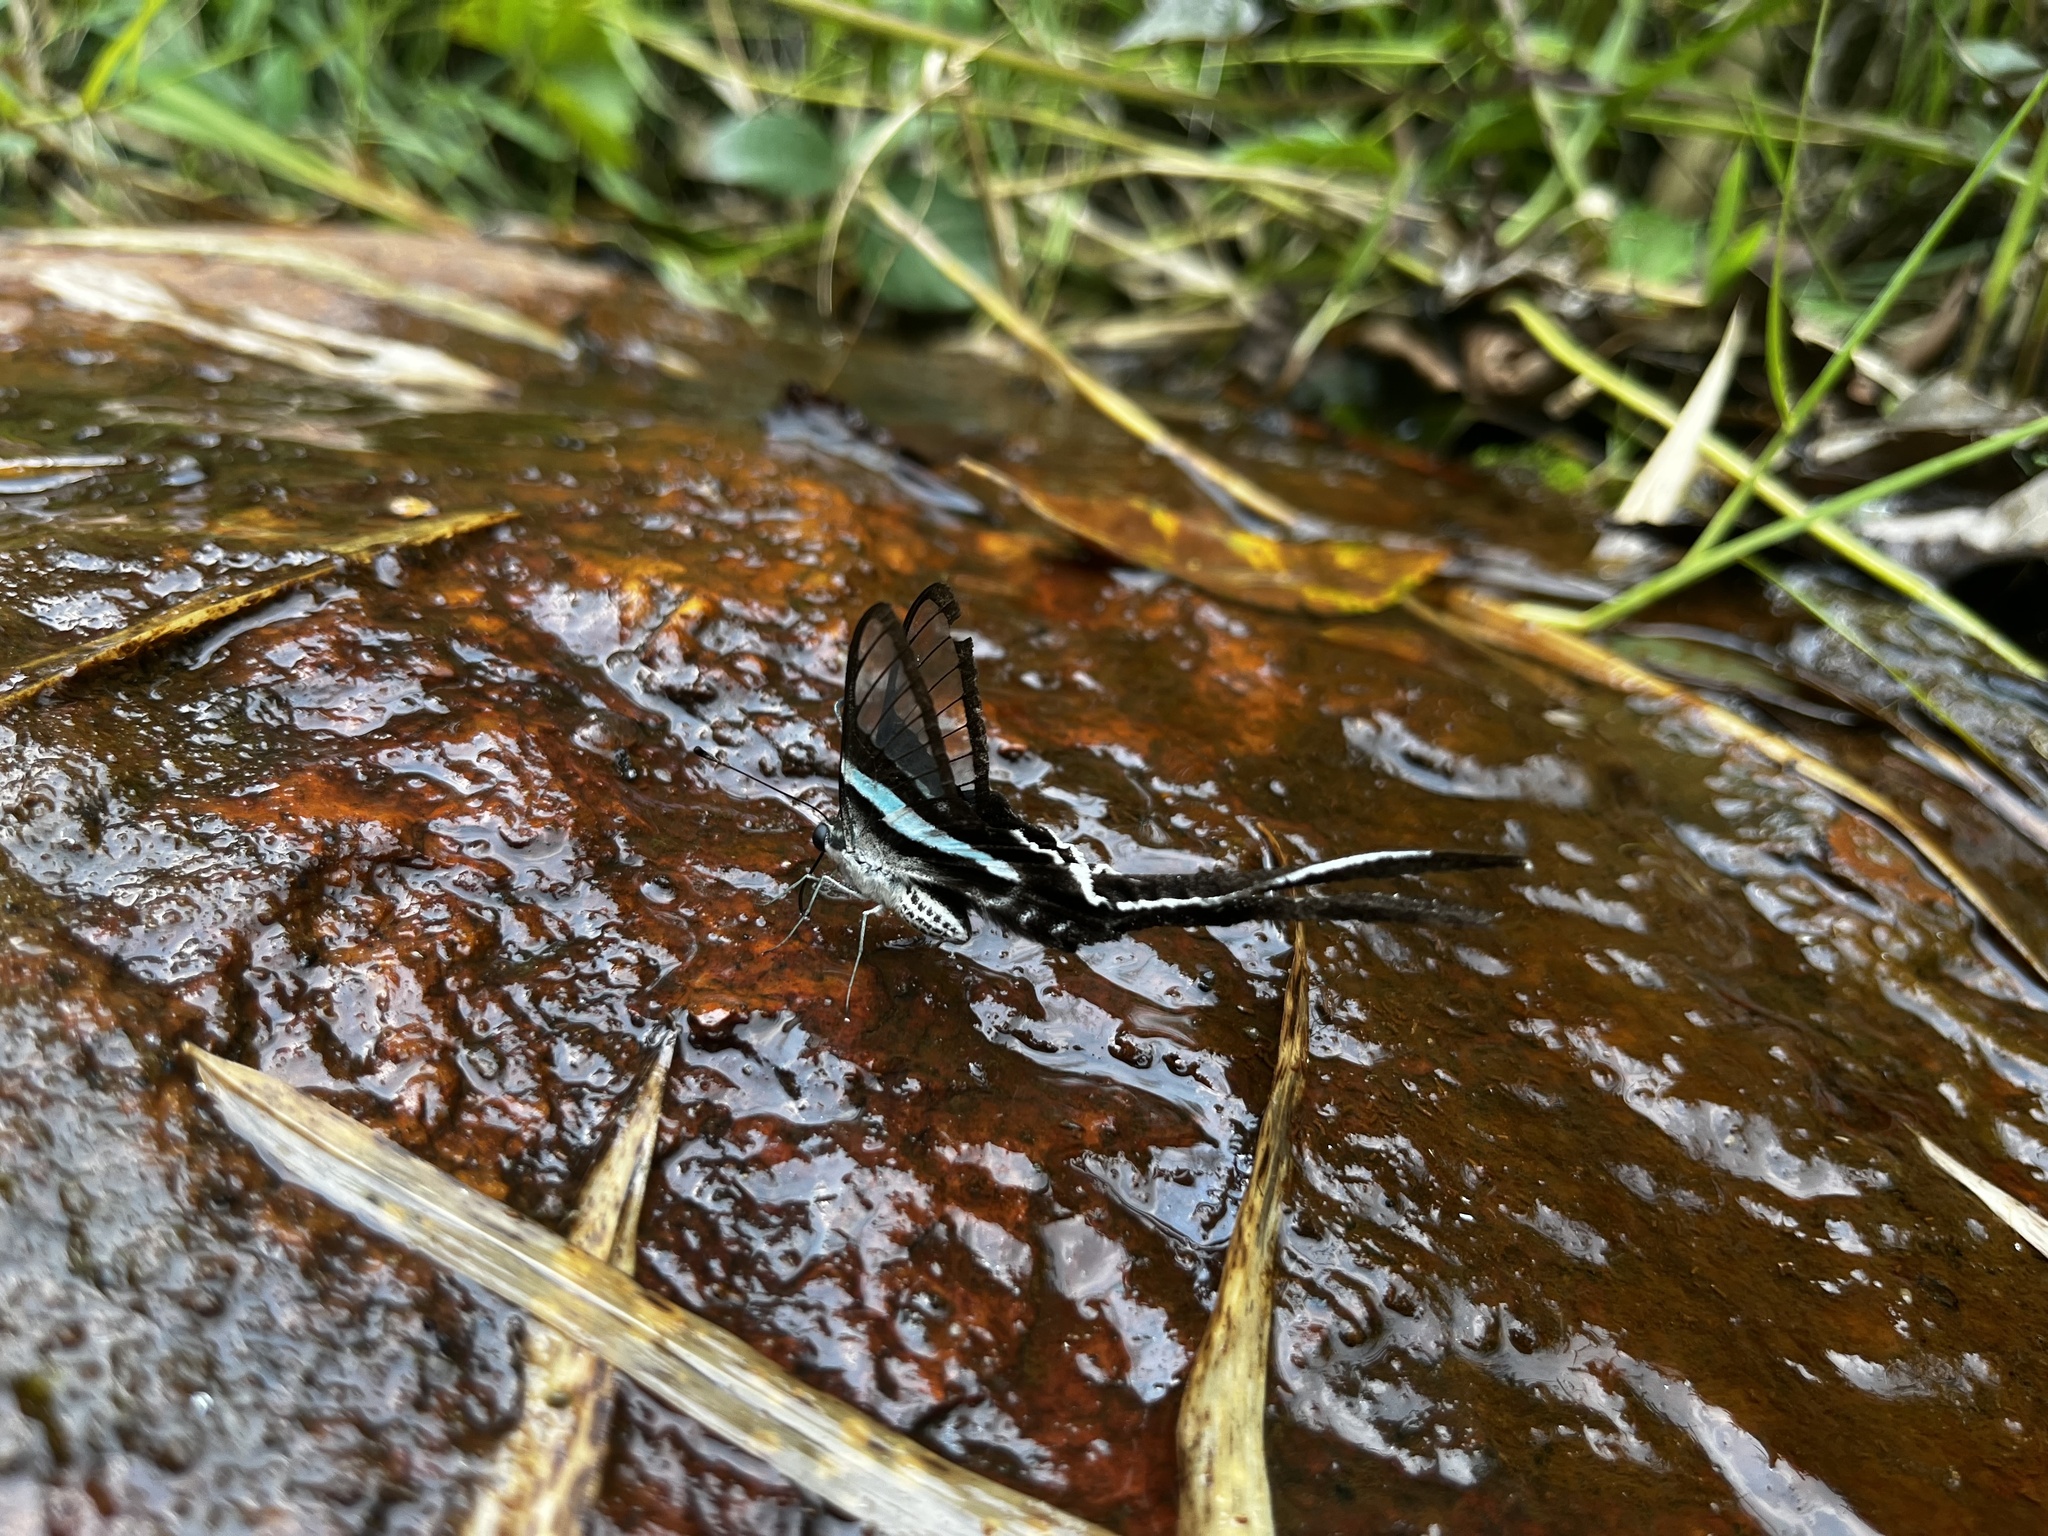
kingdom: Animalia
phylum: Arthropoda
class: Insecta
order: Lepidoptera
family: Papilionidae
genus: Lamproptera
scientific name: Lamproptera meges
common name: Green dragontail
